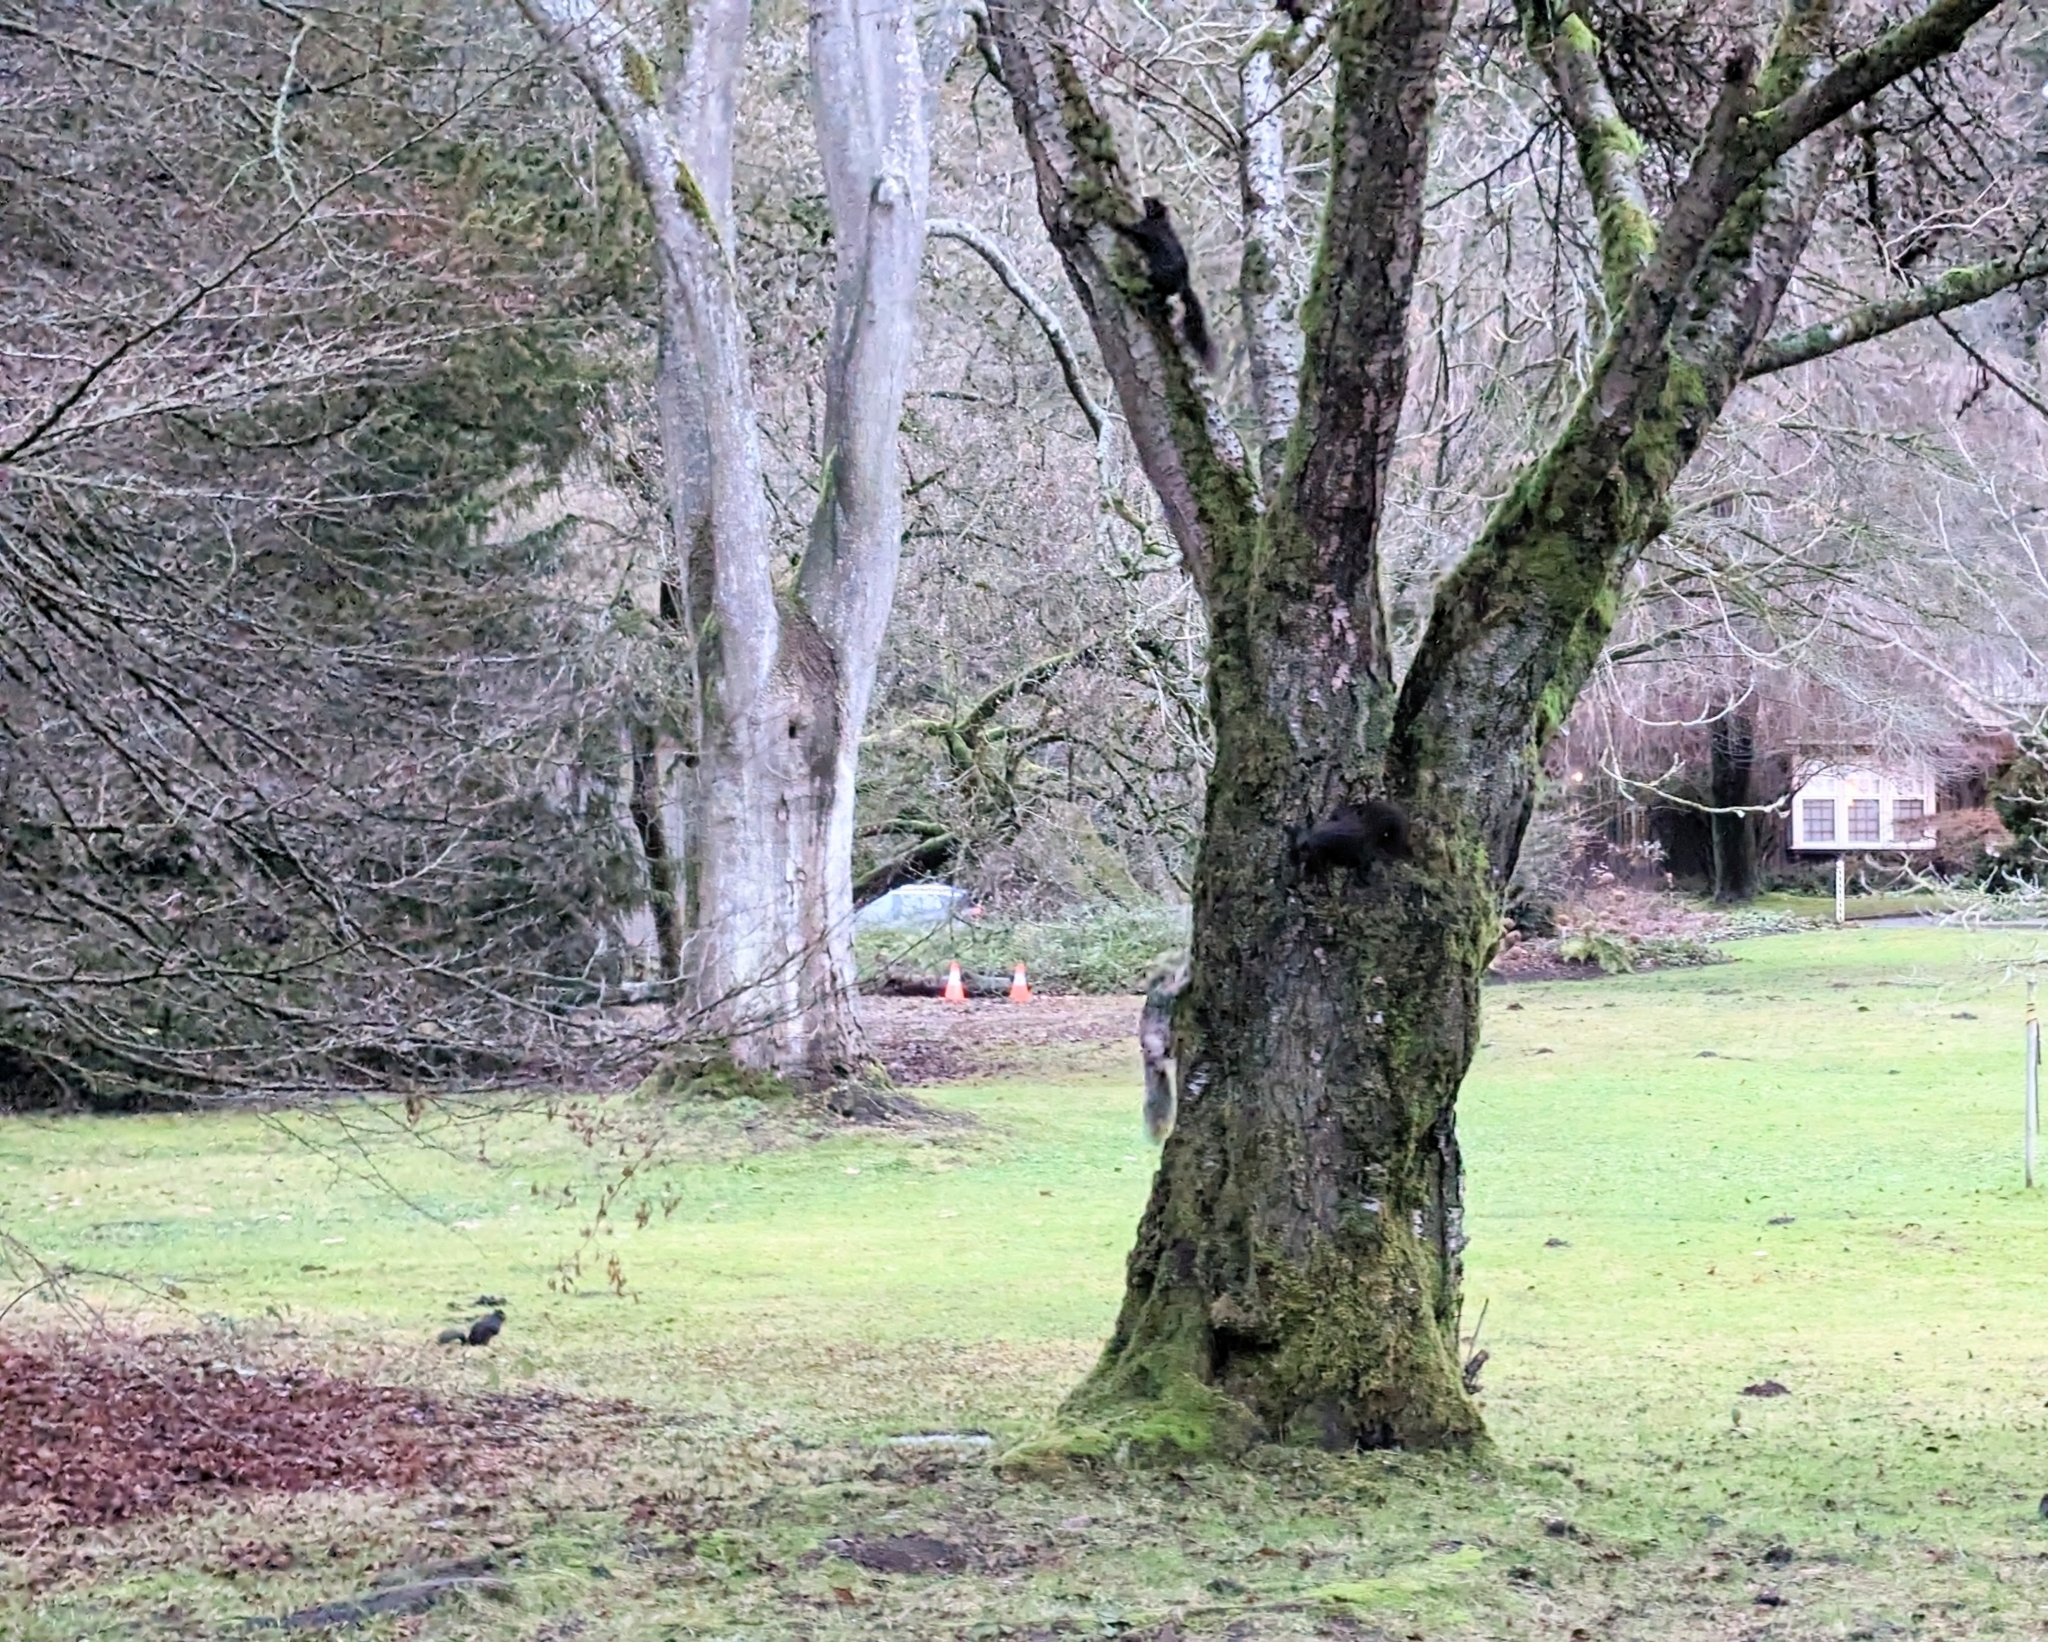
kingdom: Animalia
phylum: Chordata
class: Mammalia
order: Rodentia
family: Sciuridae
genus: Sciurus
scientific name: Sciurus carolinensis
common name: Eastern gray squirrel
